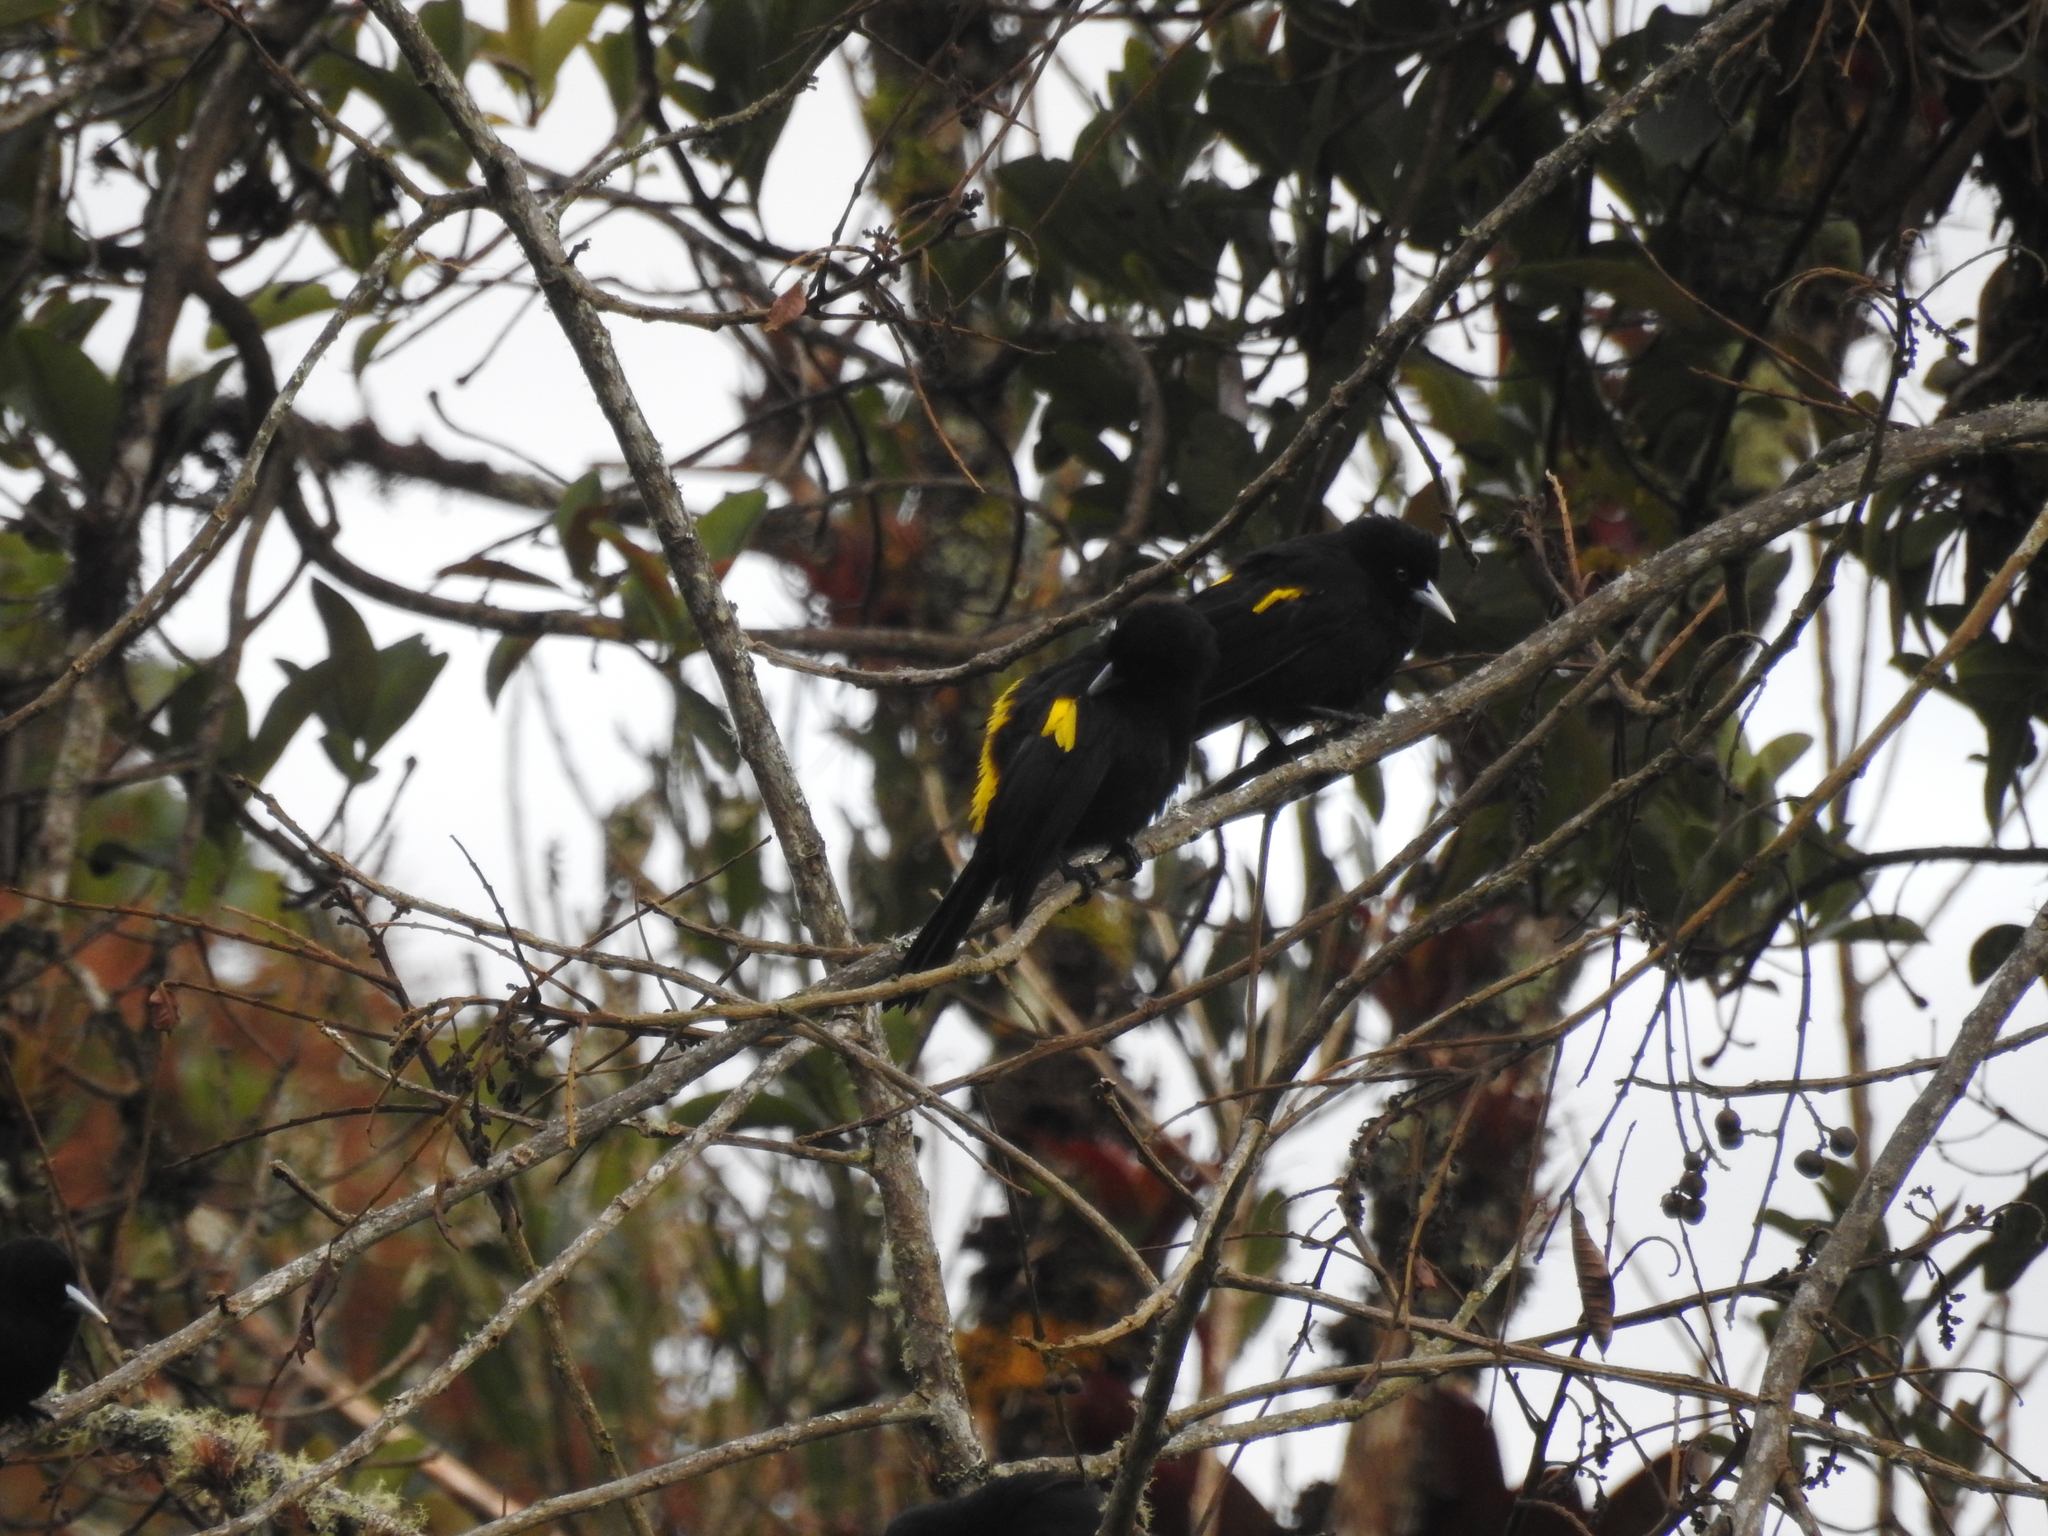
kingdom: Animalia
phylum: Chordata
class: Aves
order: Passeriformes
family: Icteridae
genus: Cacicus
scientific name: Cacicus chrysonotus
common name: Southern mountain cacique
